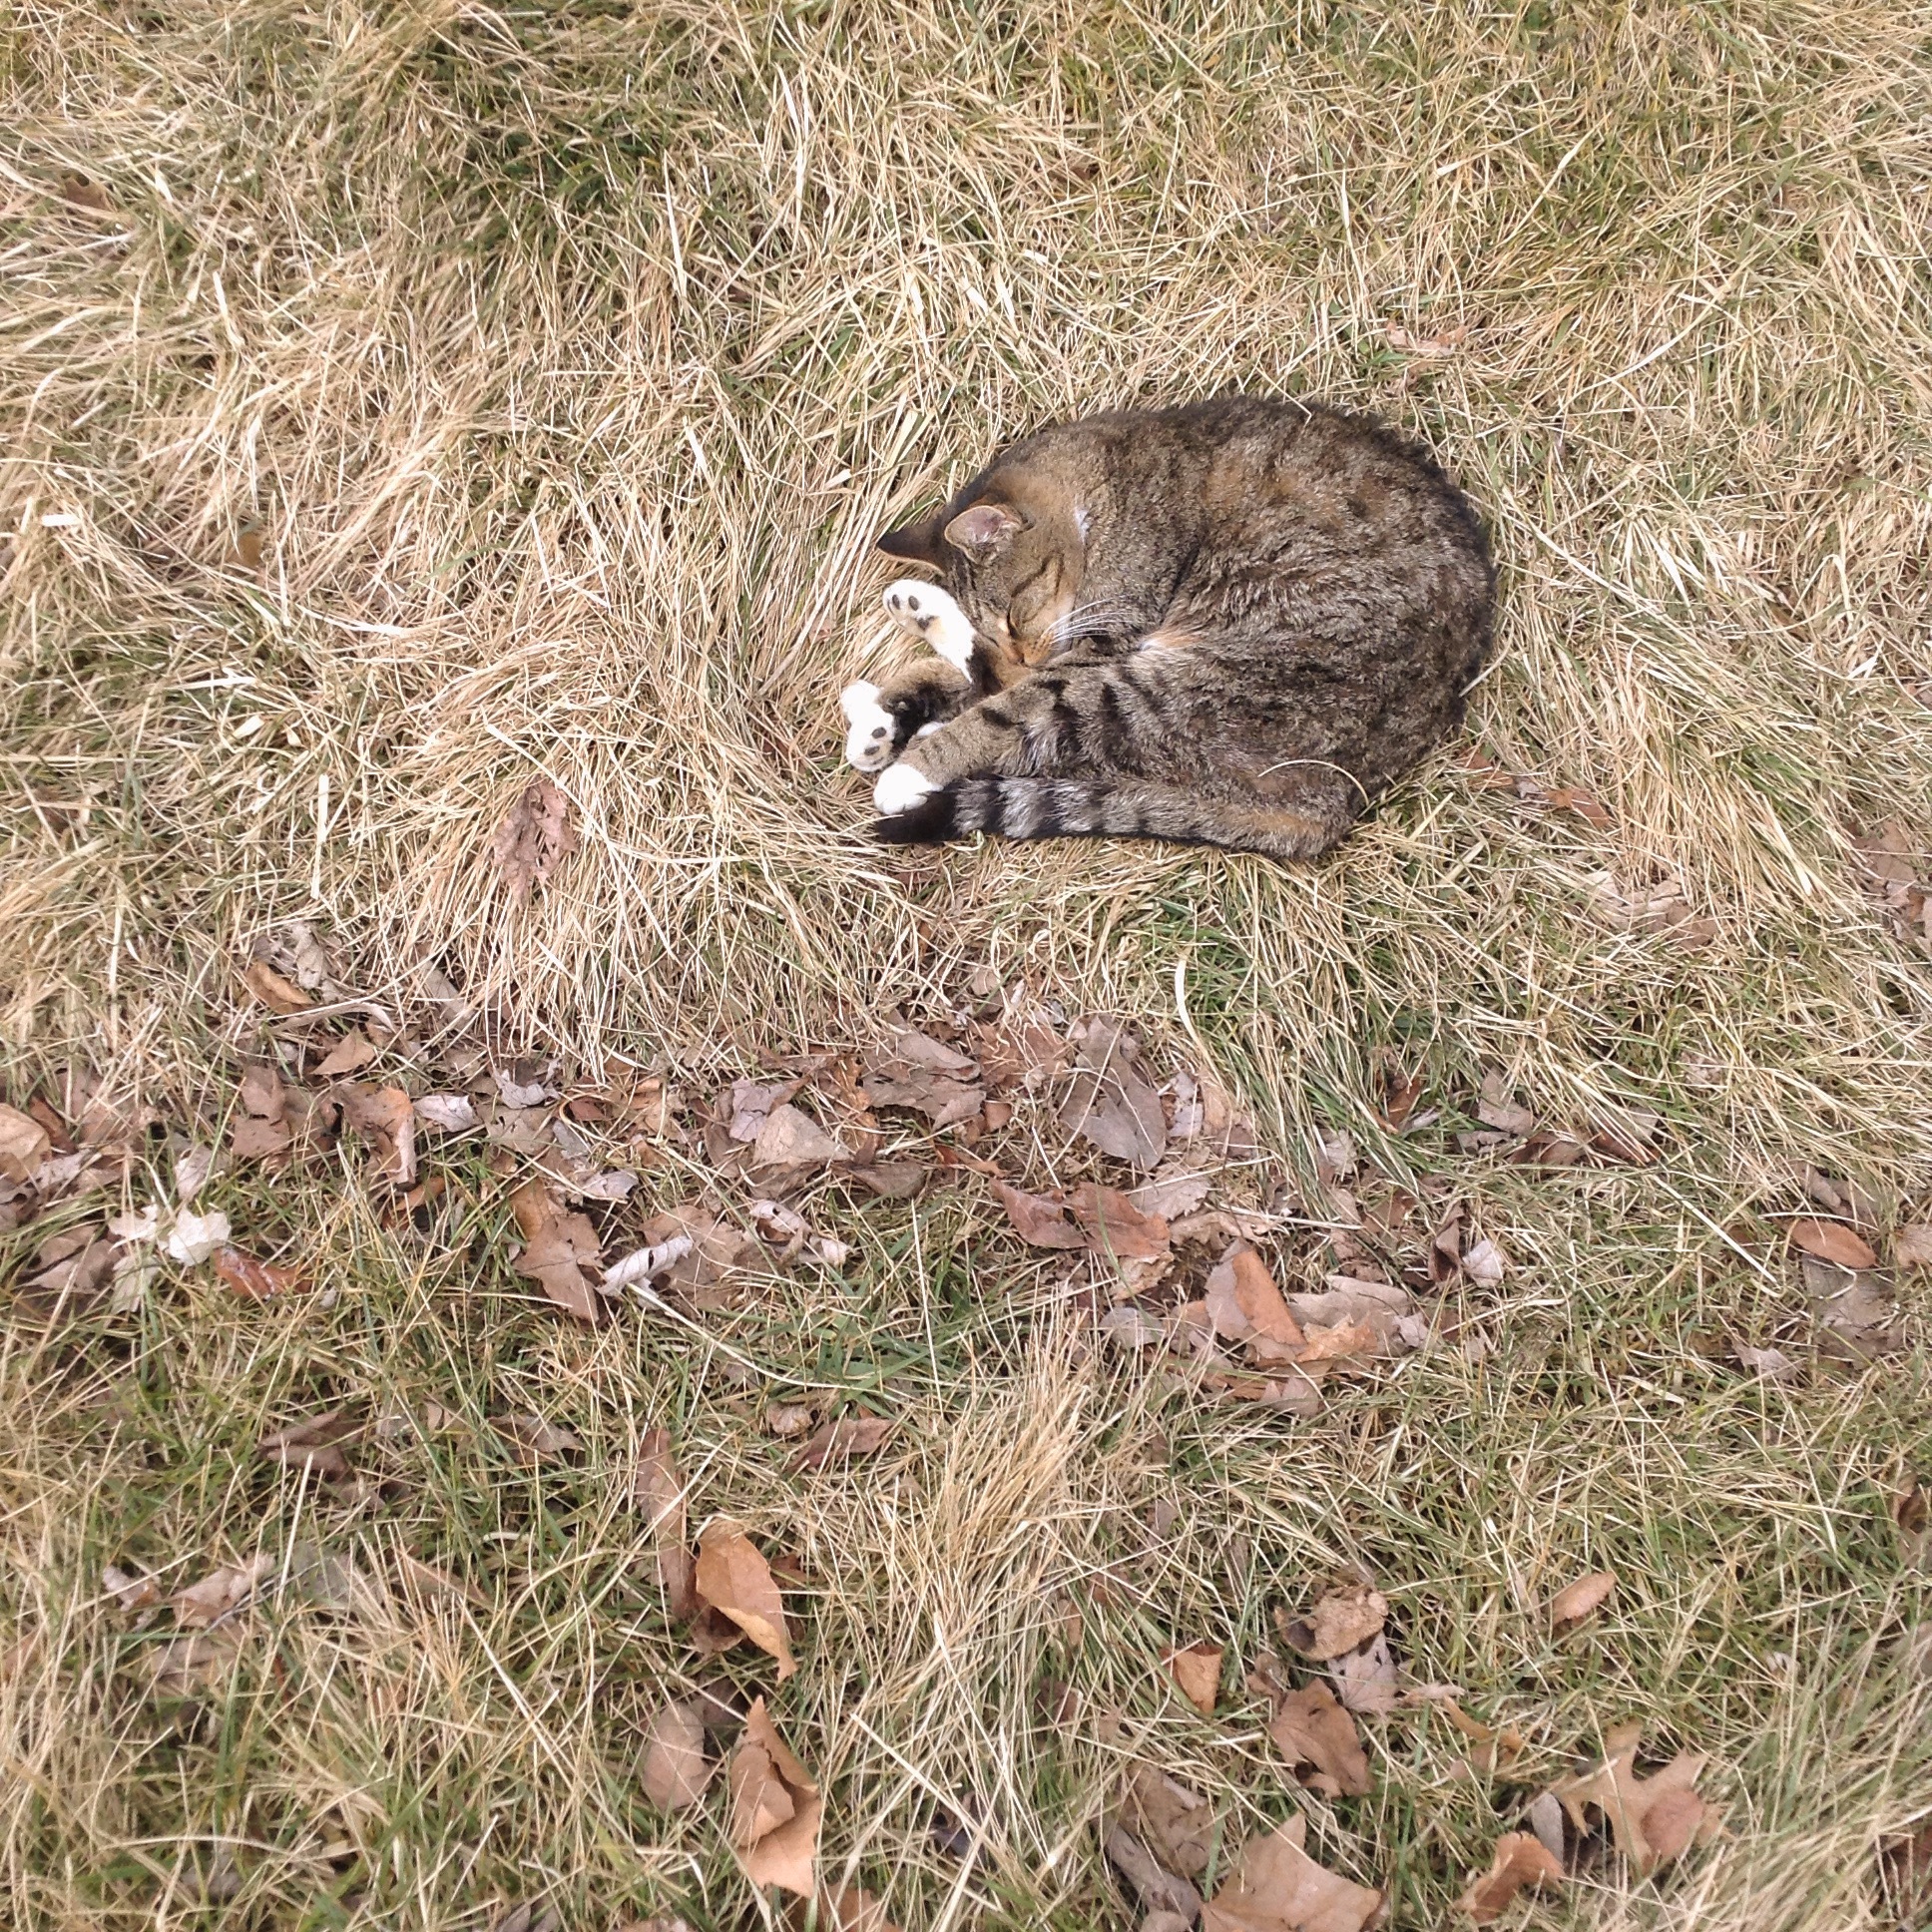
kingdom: Animalia
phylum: Chordata
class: Mammalia
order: Carnivora
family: Felidae
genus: Felis
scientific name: Felis catus
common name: Domestic cat
